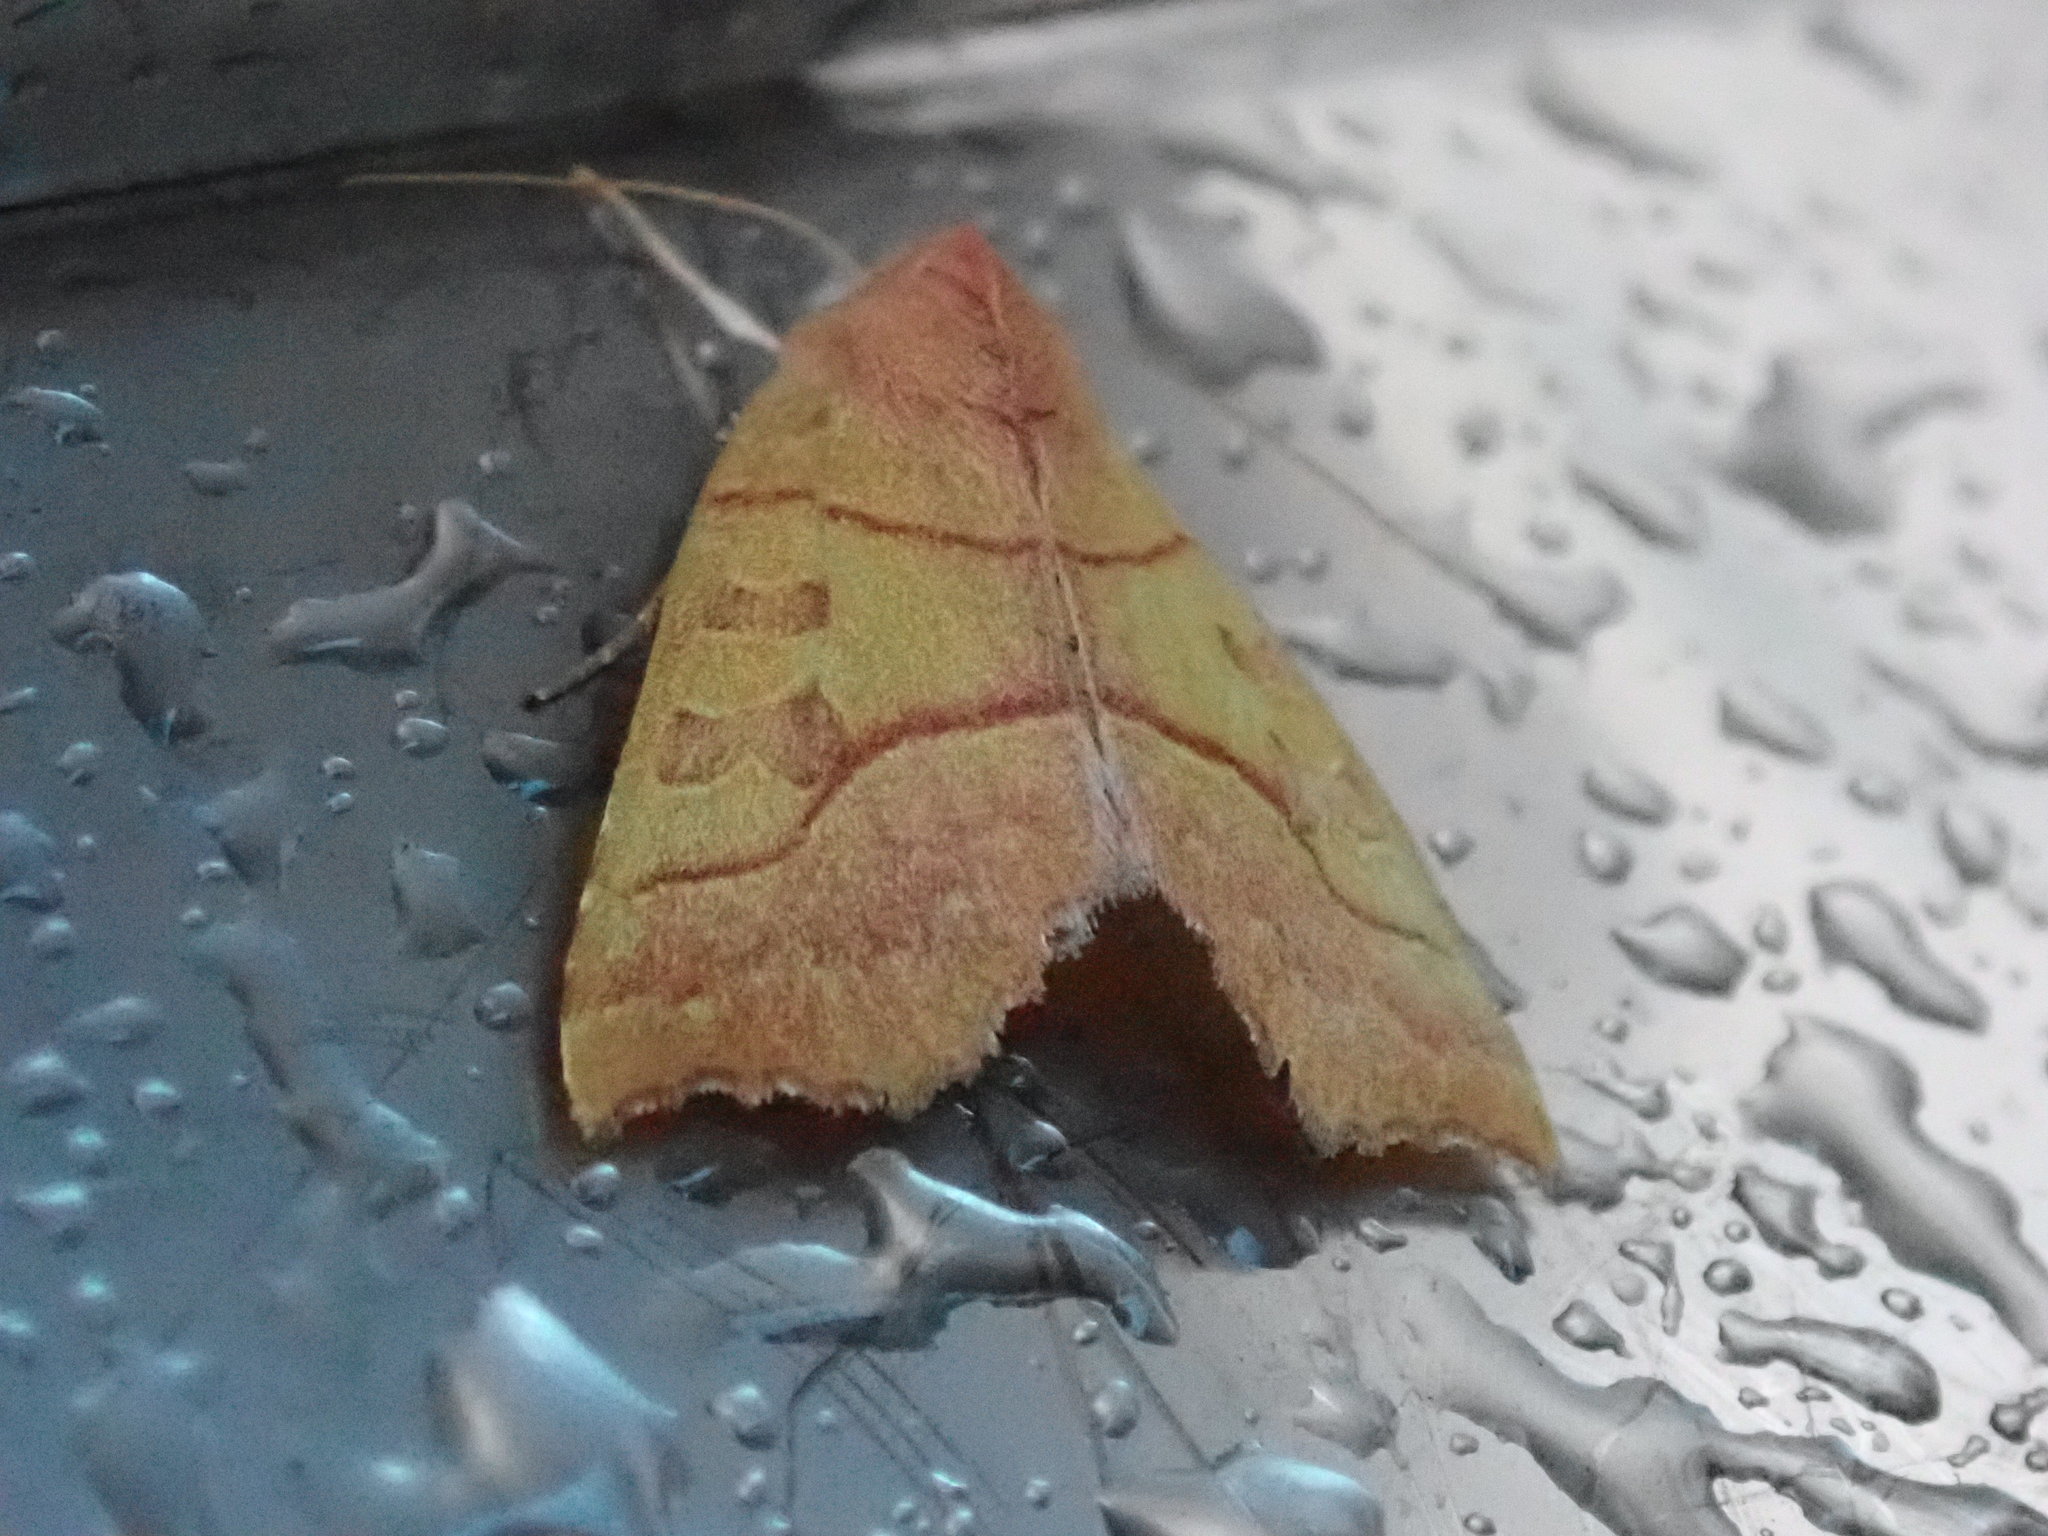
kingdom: Animalia
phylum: Arthropoda
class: Insecta
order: Lepidoptera
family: Noctuidae
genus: Eucirroedia
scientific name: Eucirroedia pampina
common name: Scalloped sallow
